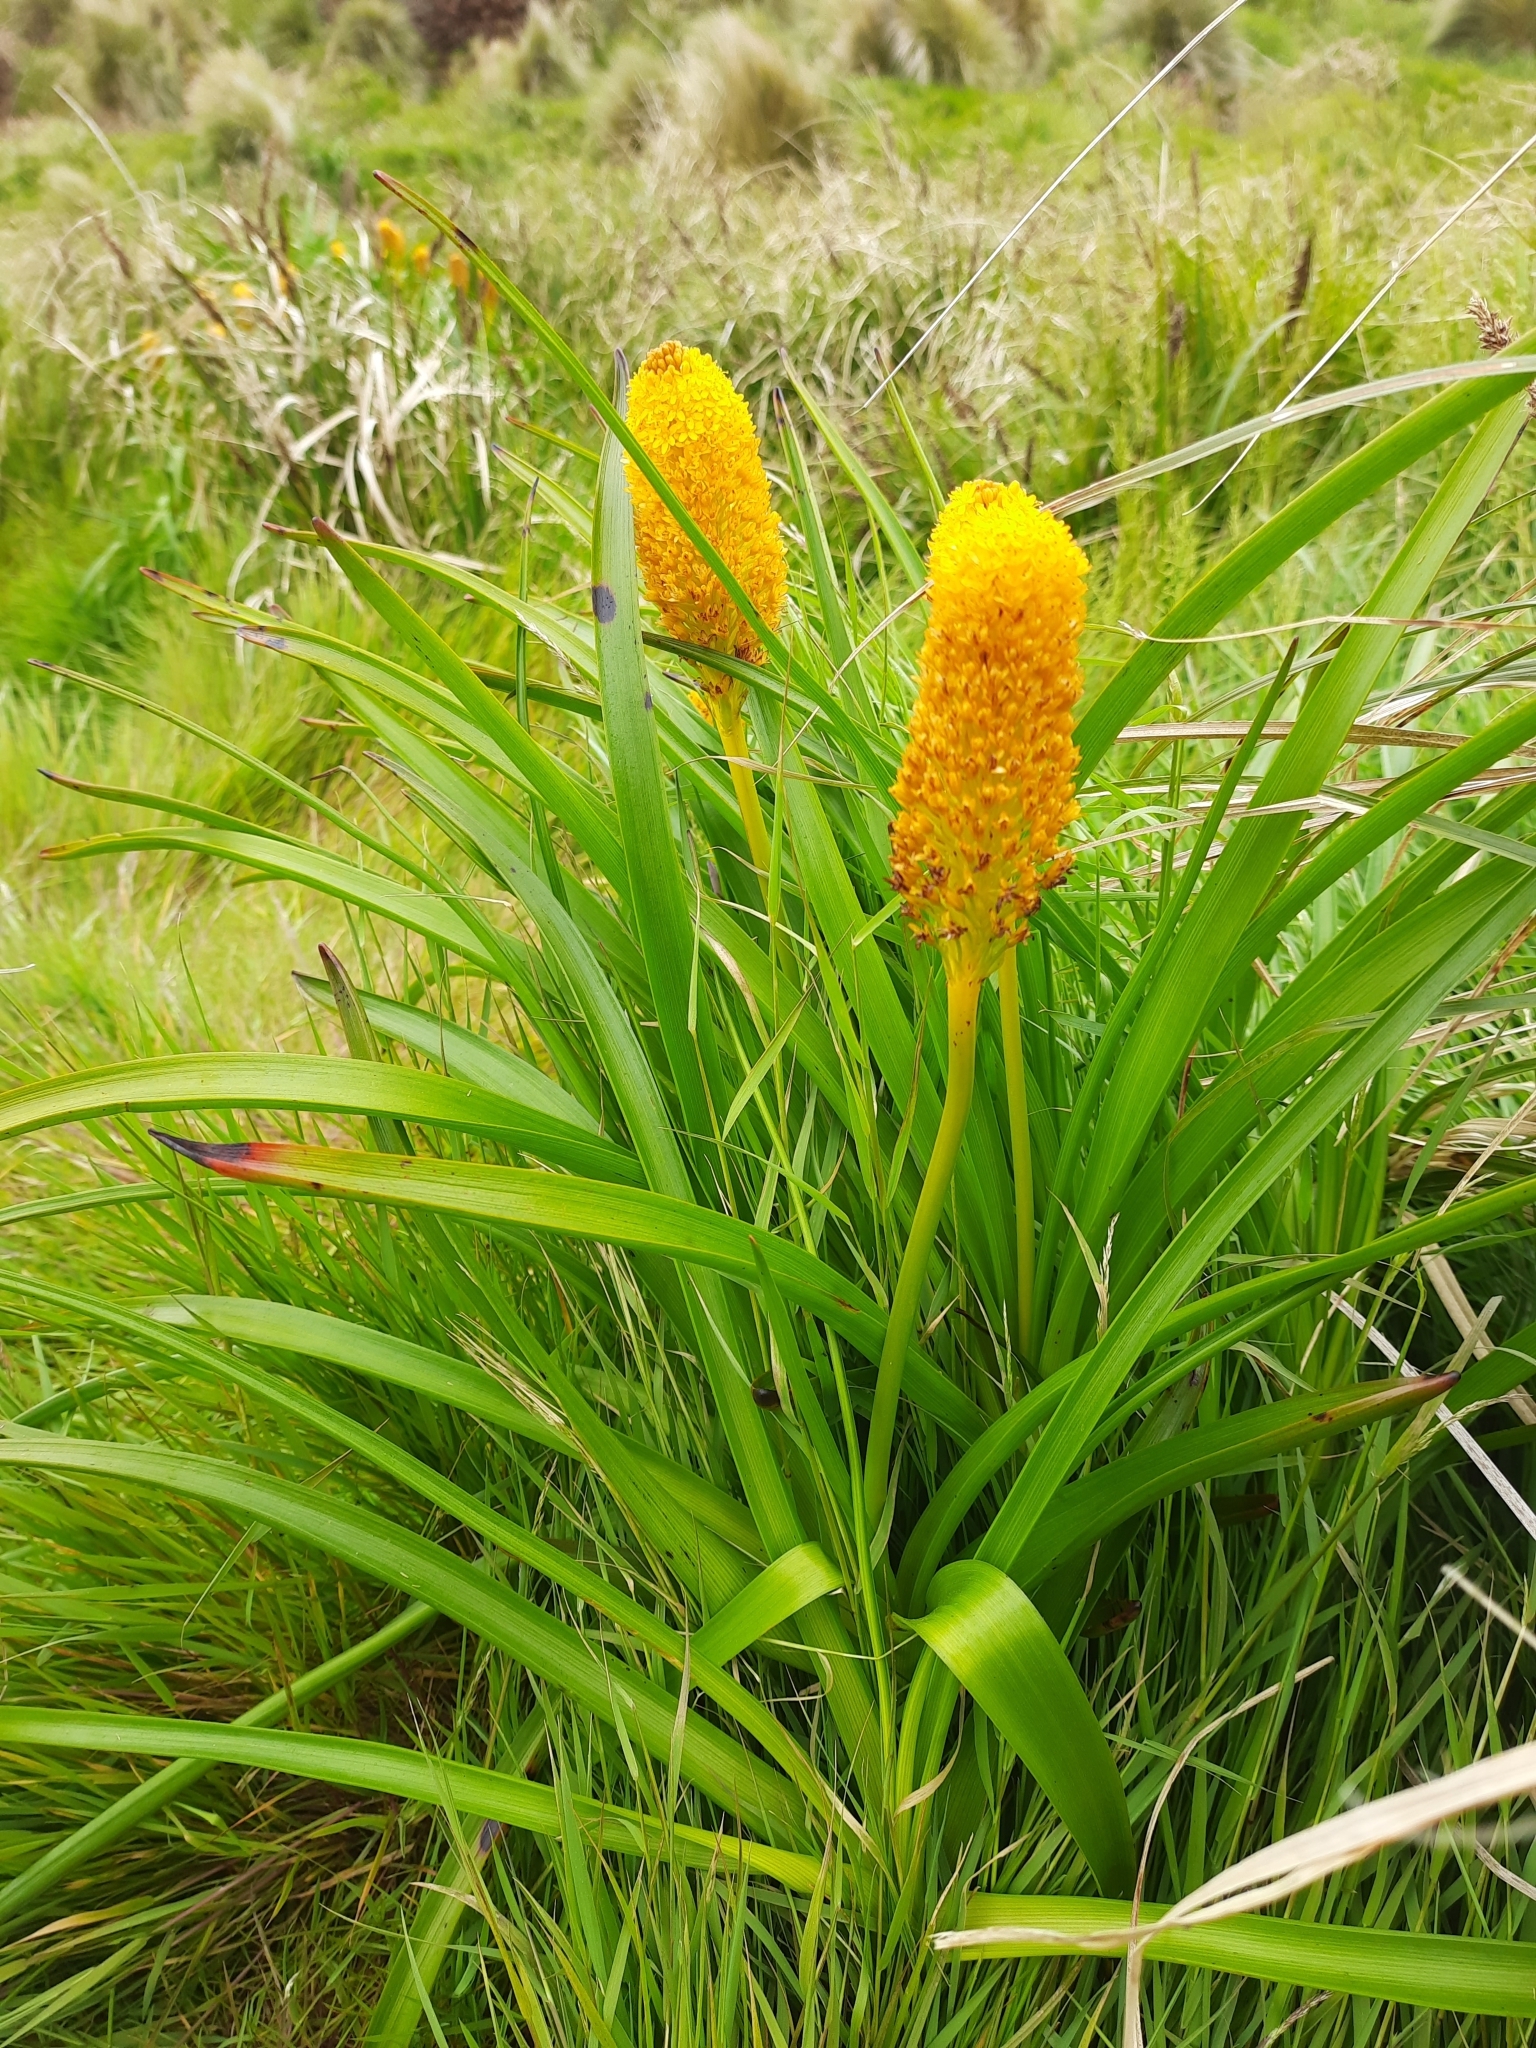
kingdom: Plantae
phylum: Tracheophyta
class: Liliopsida
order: Asparagales
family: Asphodelaceae
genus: Bulbinella
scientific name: Bulbinella rossii
